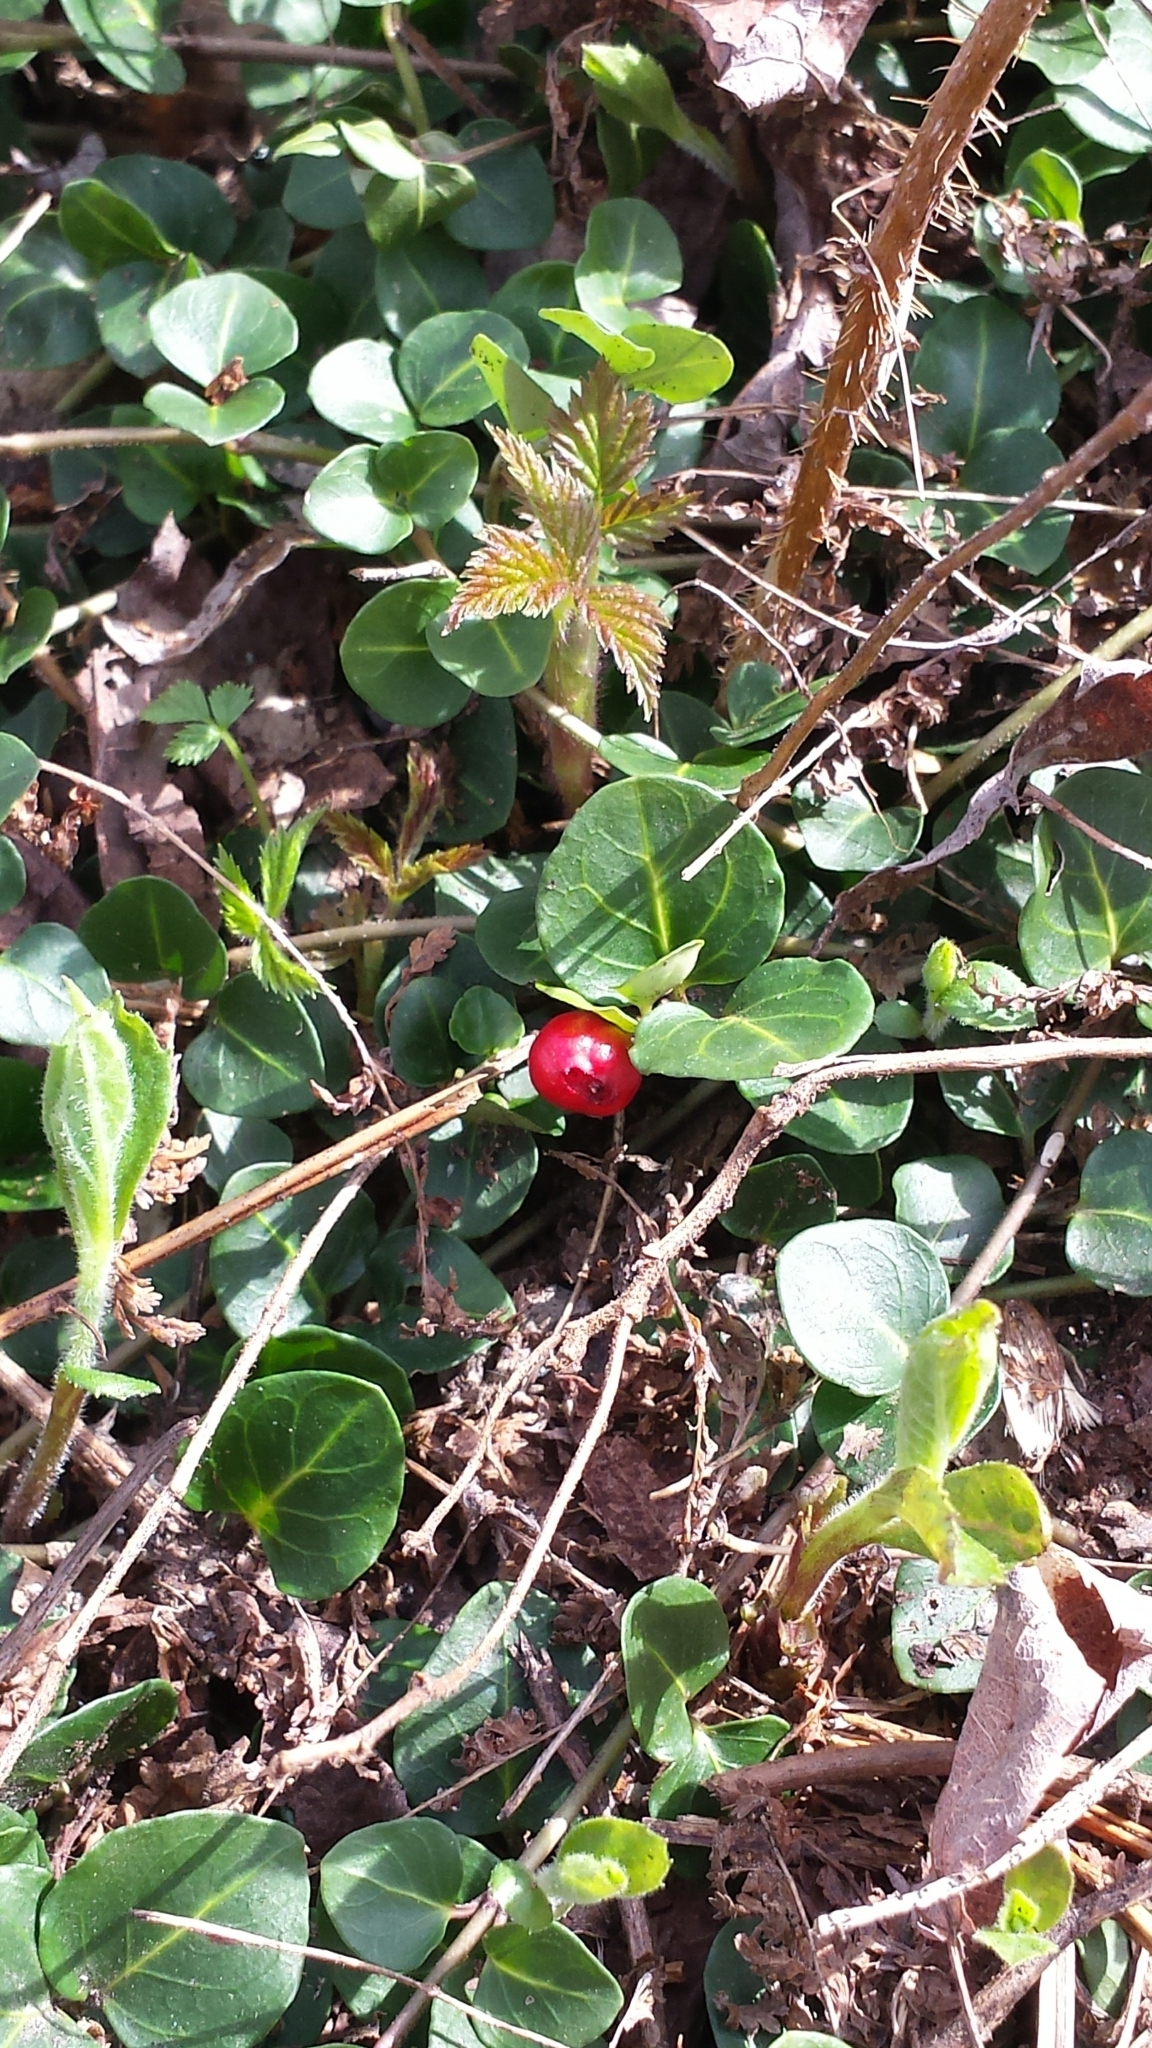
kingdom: Plantae
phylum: Tracheophyta
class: Magnoliopsida
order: Gentianales
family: Rubiaceae
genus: Mitchella
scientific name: Mitchella repens
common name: Partridge-berry
